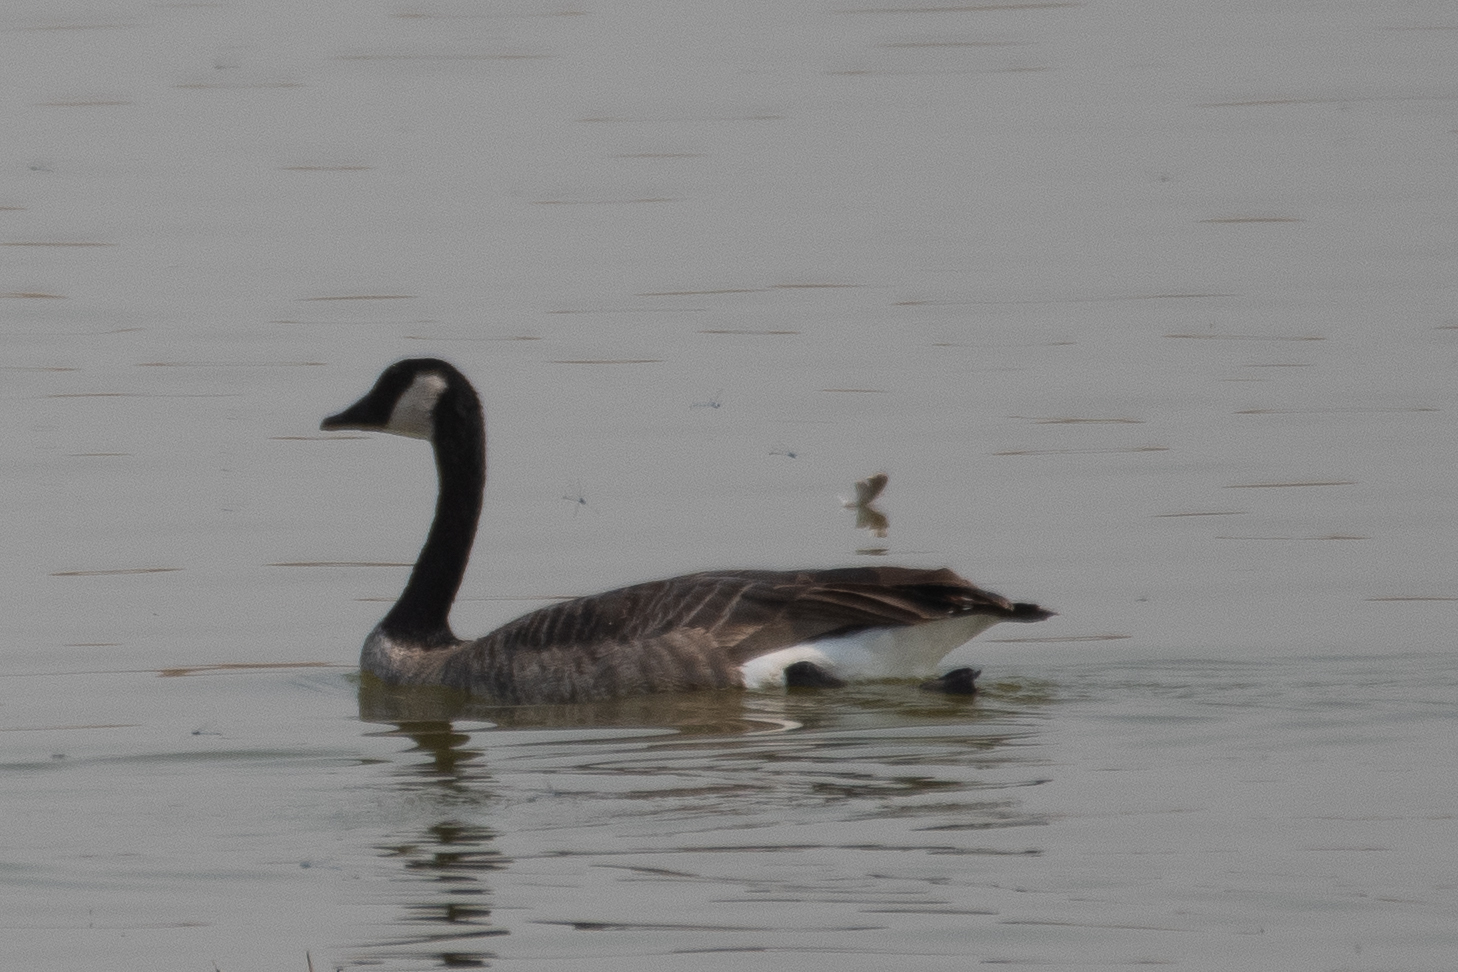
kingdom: Animalia
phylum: Chordata
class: Aves
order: Anseriformes
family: Anatidae
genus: Branta
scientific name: Branta canadensis
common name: Canada goose
